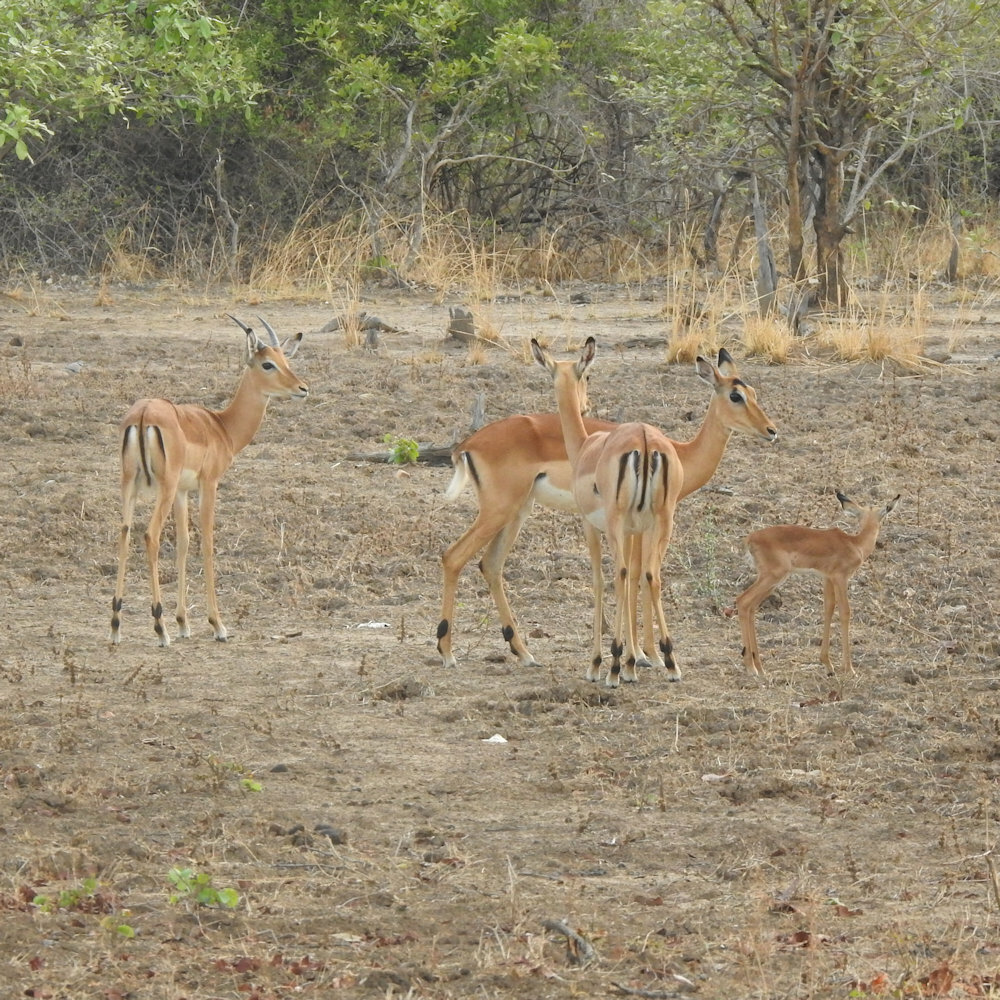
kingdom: Animalia
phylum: Chordata
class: Mammalia
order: Artiodactyla
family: Bovidae
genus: Aepyceros
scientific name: Aepyceros melampus
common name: Impala
